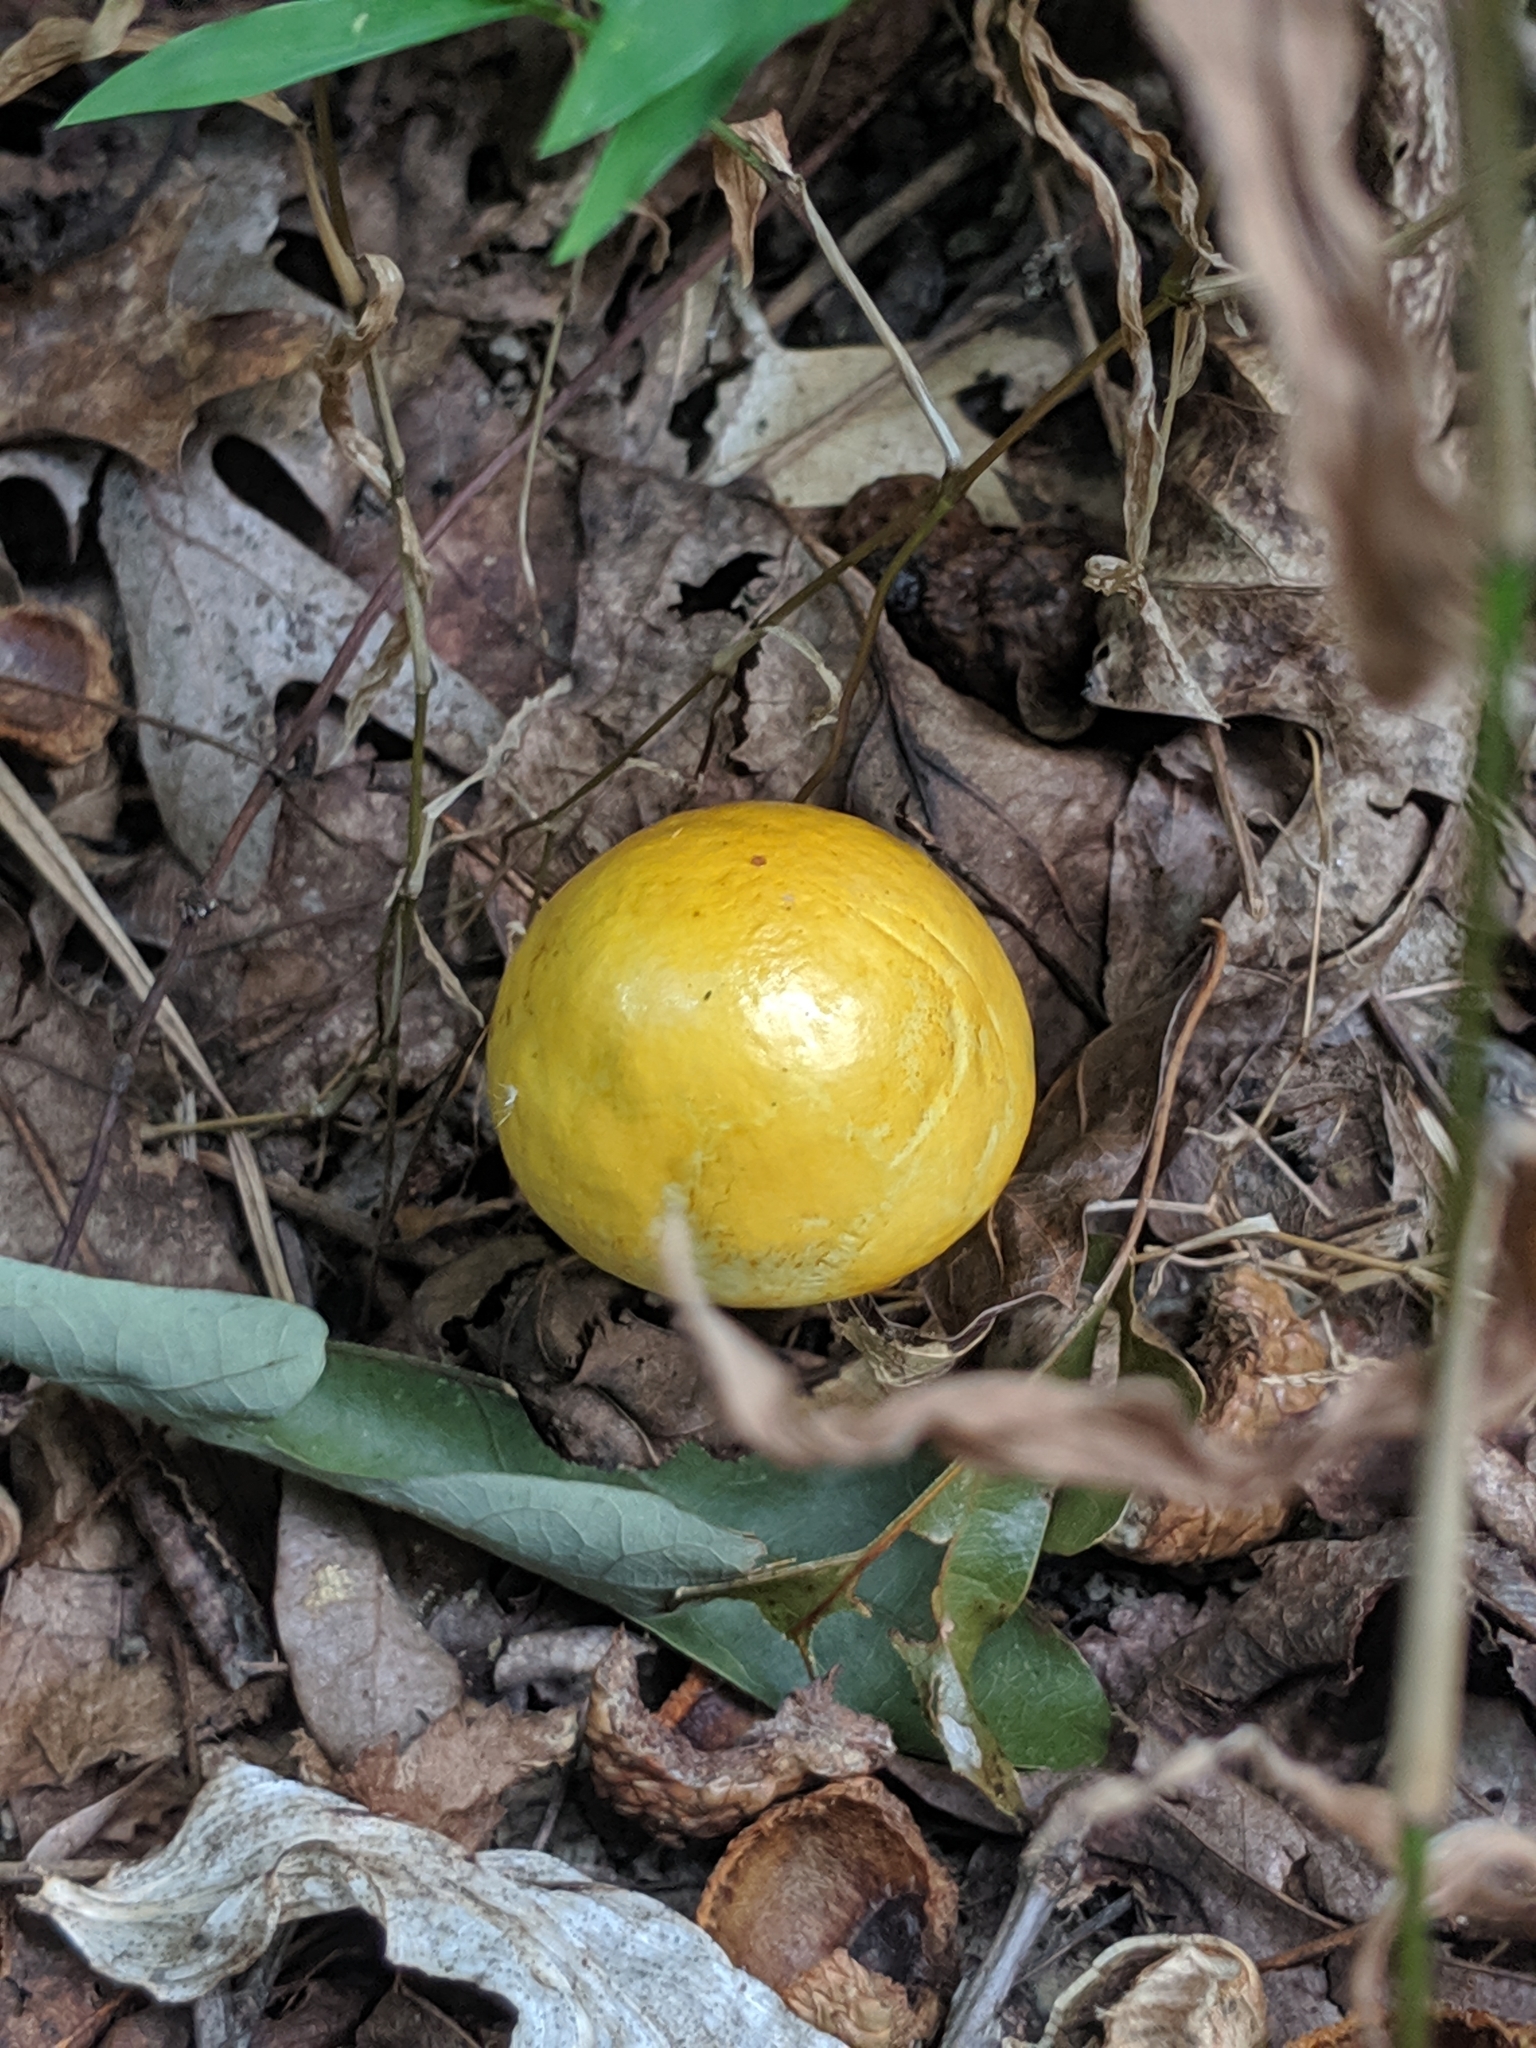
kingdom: Fungi
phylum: Basidiomycota
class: Agaricomycetes
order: Boletales
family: Boletaceae
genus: Pulveroboletus
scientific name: Pulveroboletus curtisii
